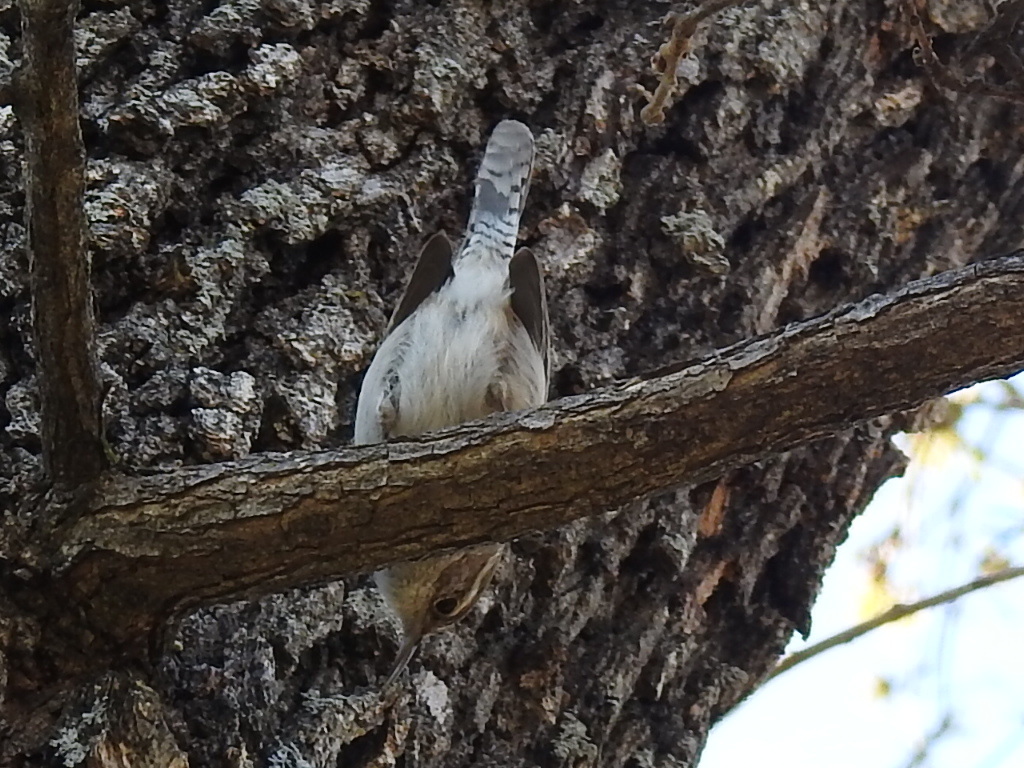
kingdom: Animalia
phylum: Chordata
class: Aves
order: Passeriformes
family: Troglodytidae
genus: Thryomanes
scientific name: Thryomanes bewickii
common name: Bewick's wren
